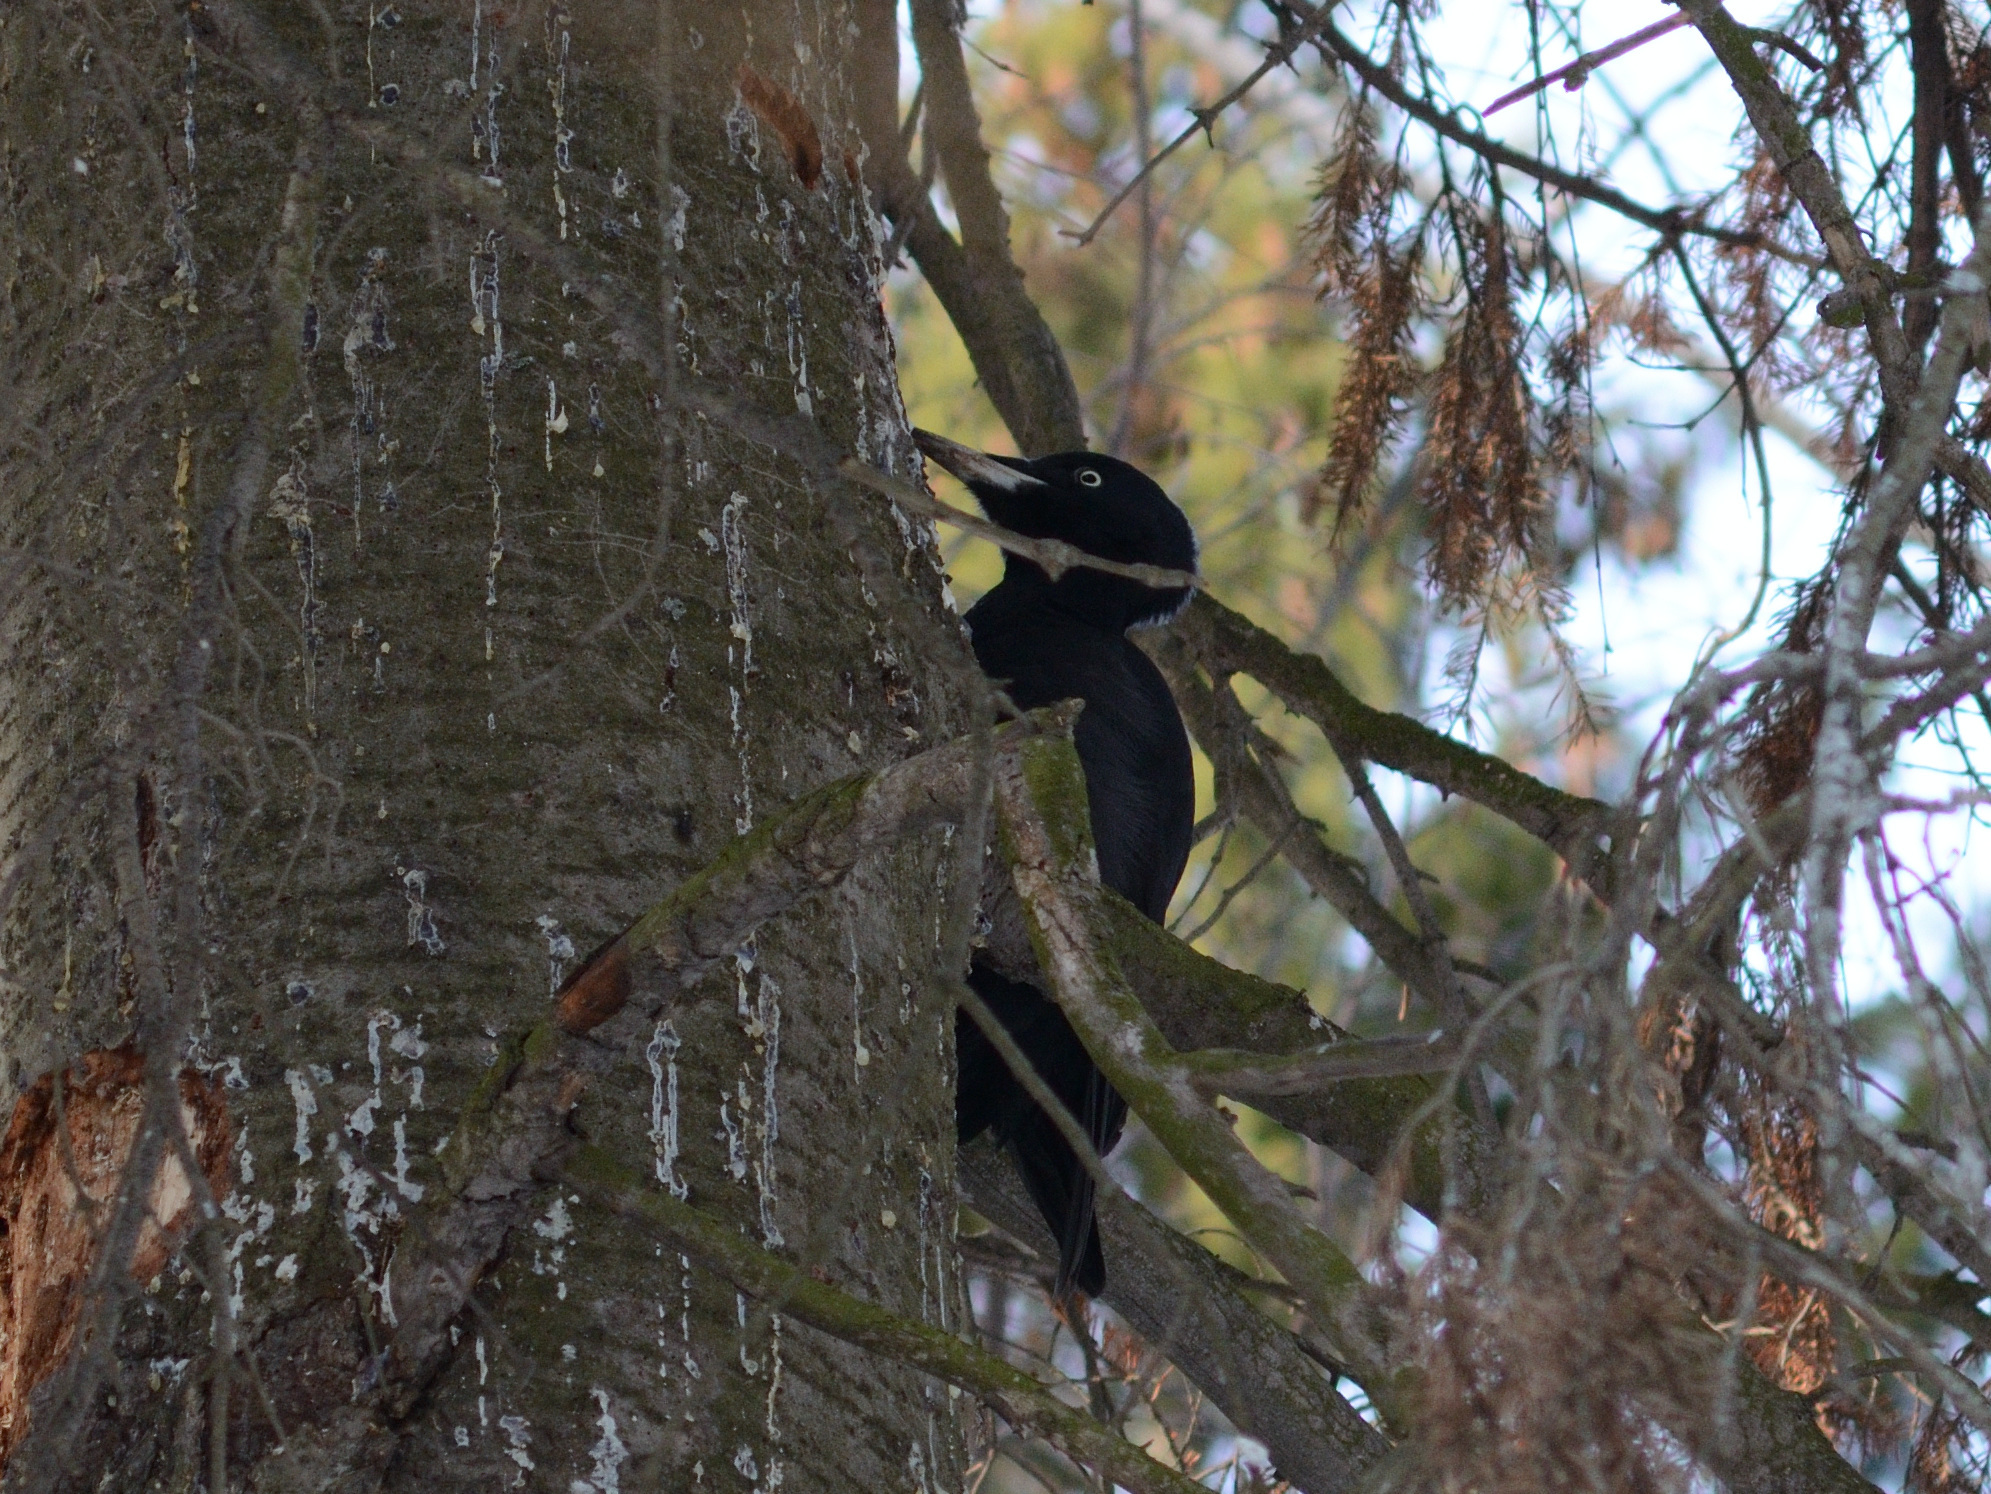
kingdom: Animalia
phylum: Chordata
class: Aves
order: Piciformes
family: Picidae
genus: Dryocopus
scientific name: Dryocopus martius
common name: Black woodpecker
